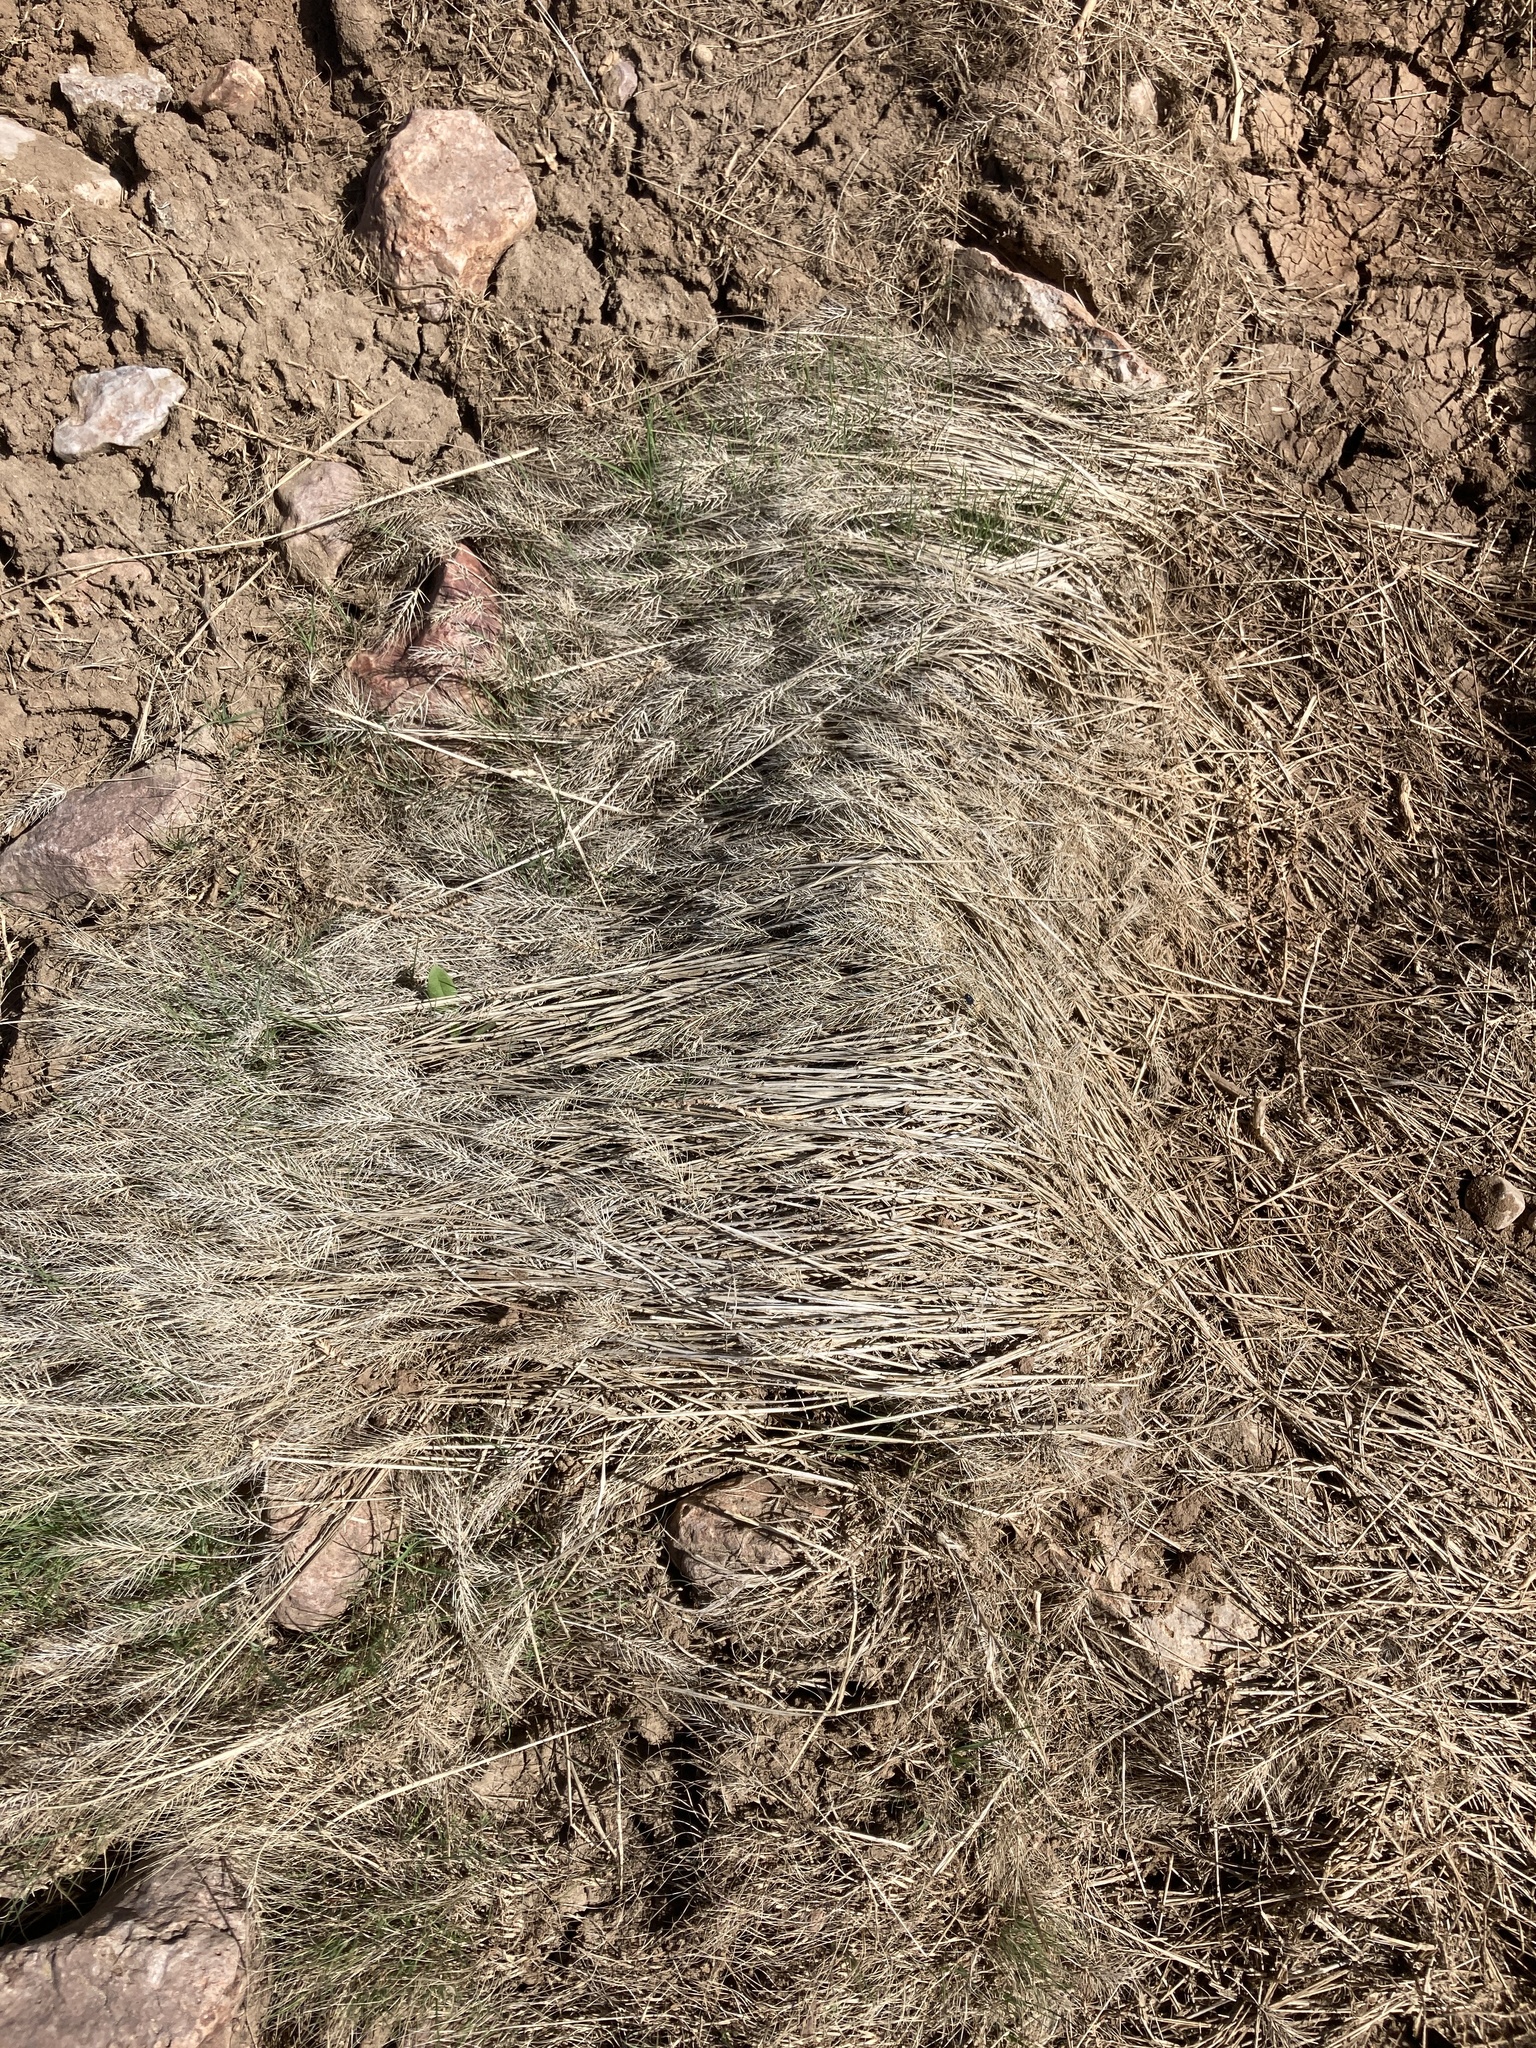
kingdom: Plantae
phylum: Tracheophyta
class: Liliopsida
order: Poales
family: Poaceae
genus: Taeniatherum
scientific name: Taeniatherum caput-medusae
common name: Medusahead
